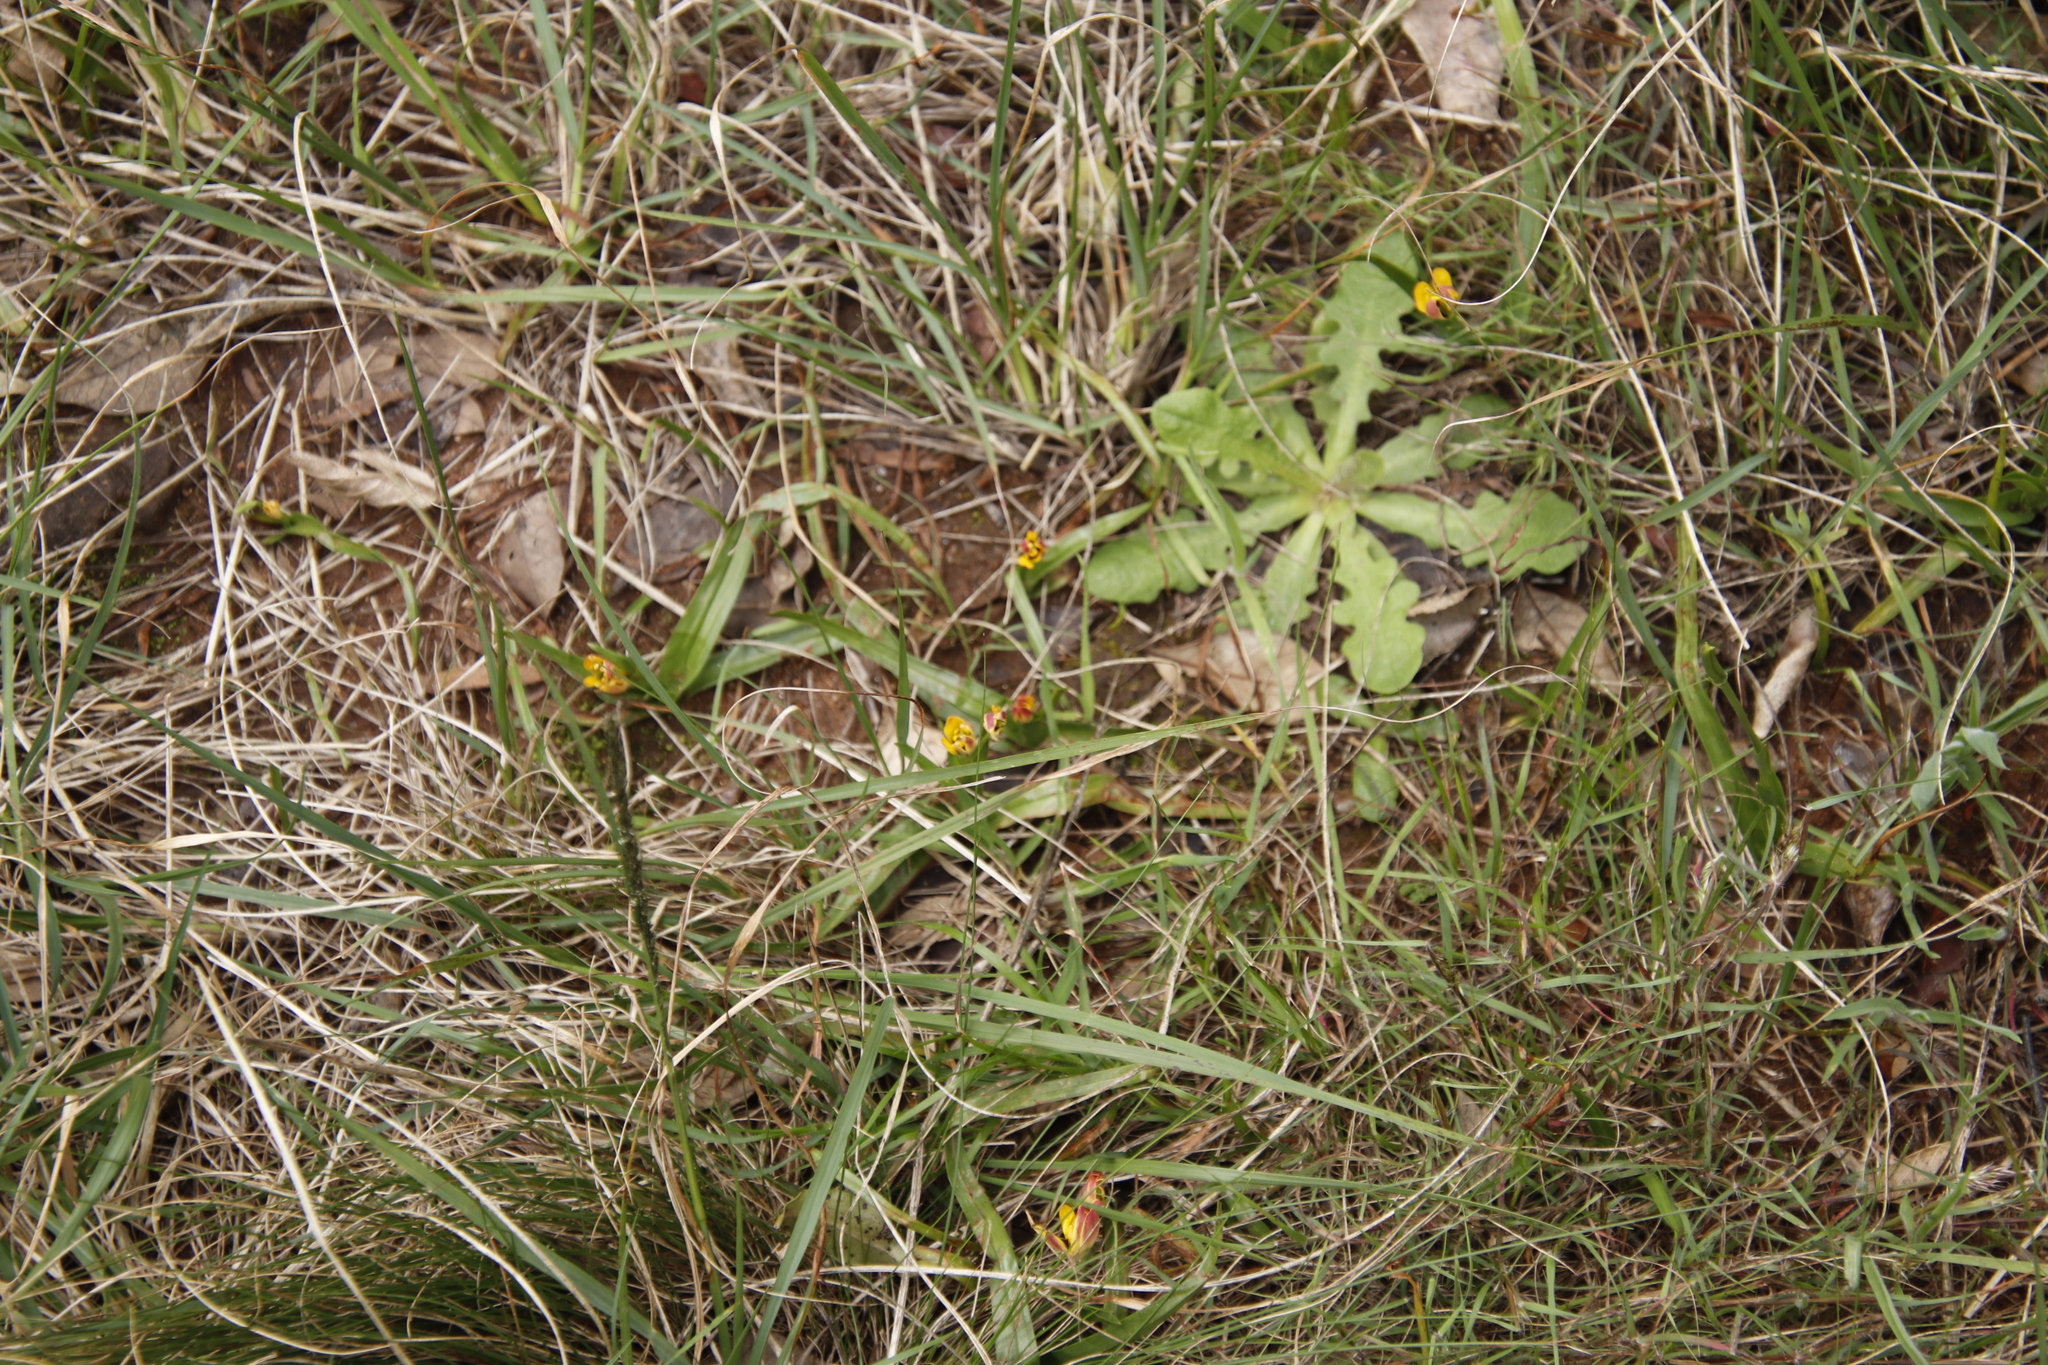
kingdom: Plantae
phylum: Tracheophyta
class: Liliopsida
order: Liliales
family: Colchicaceae
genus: Baeometra
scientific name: Baeometra uniflora
